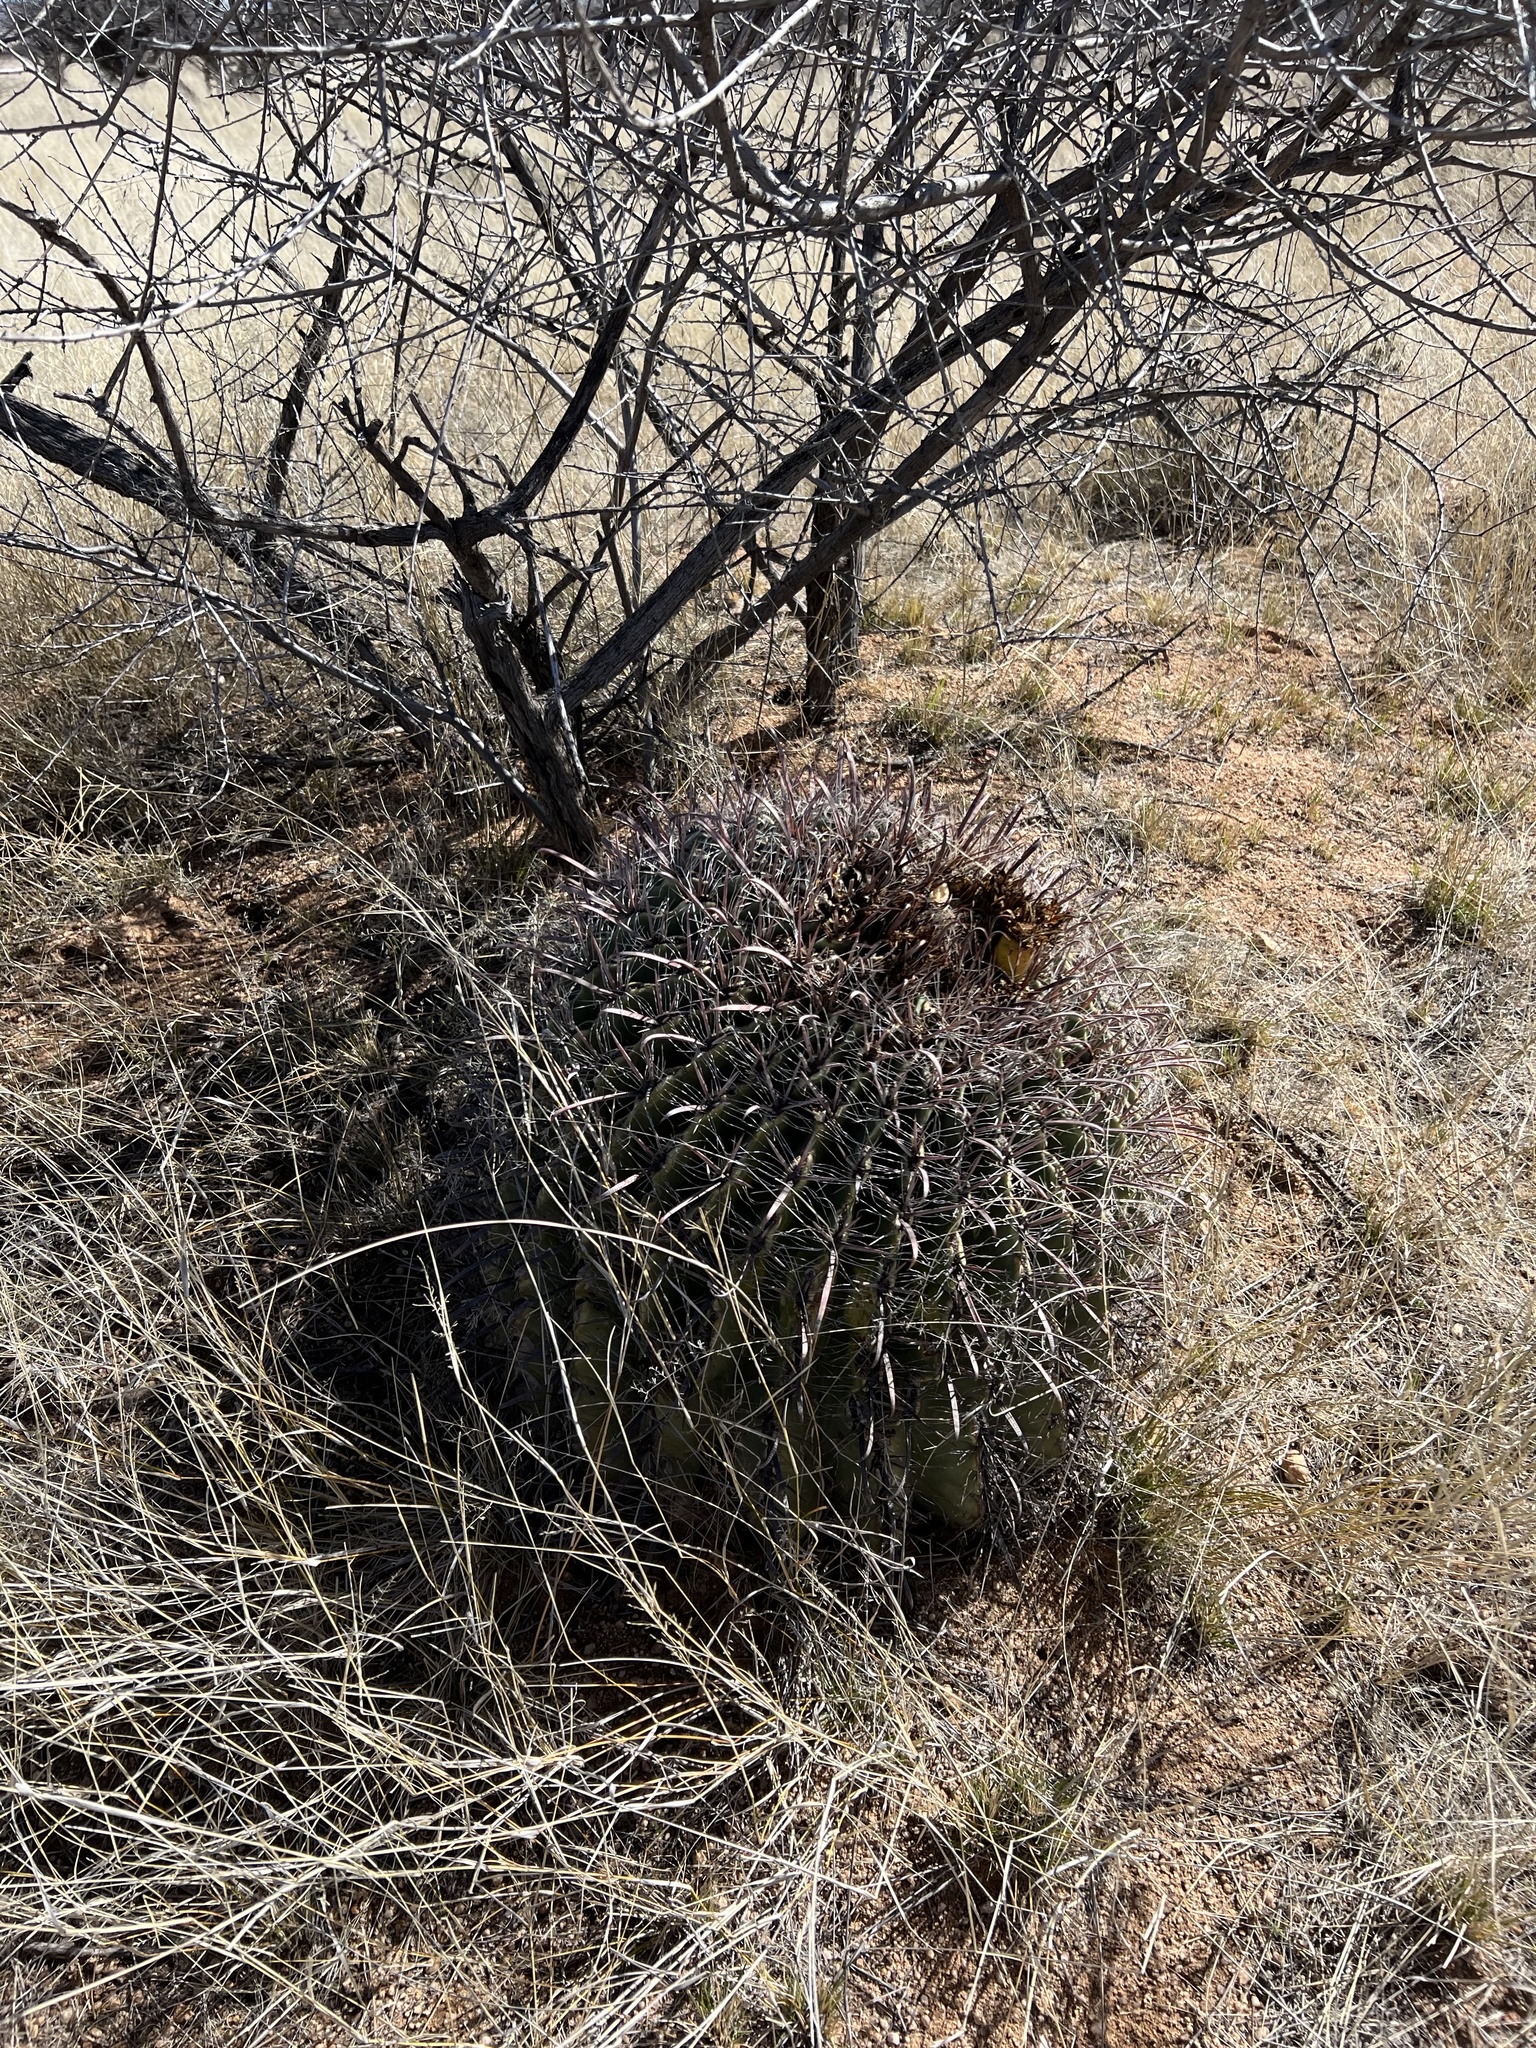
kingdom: Plantae
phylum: Tracheophyta
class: Magnoliopsida
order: Caryophyllales
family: Cactaceae
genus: Ferocactus
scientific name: Ferocactus wislizeni
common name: Candy barrel cactus
